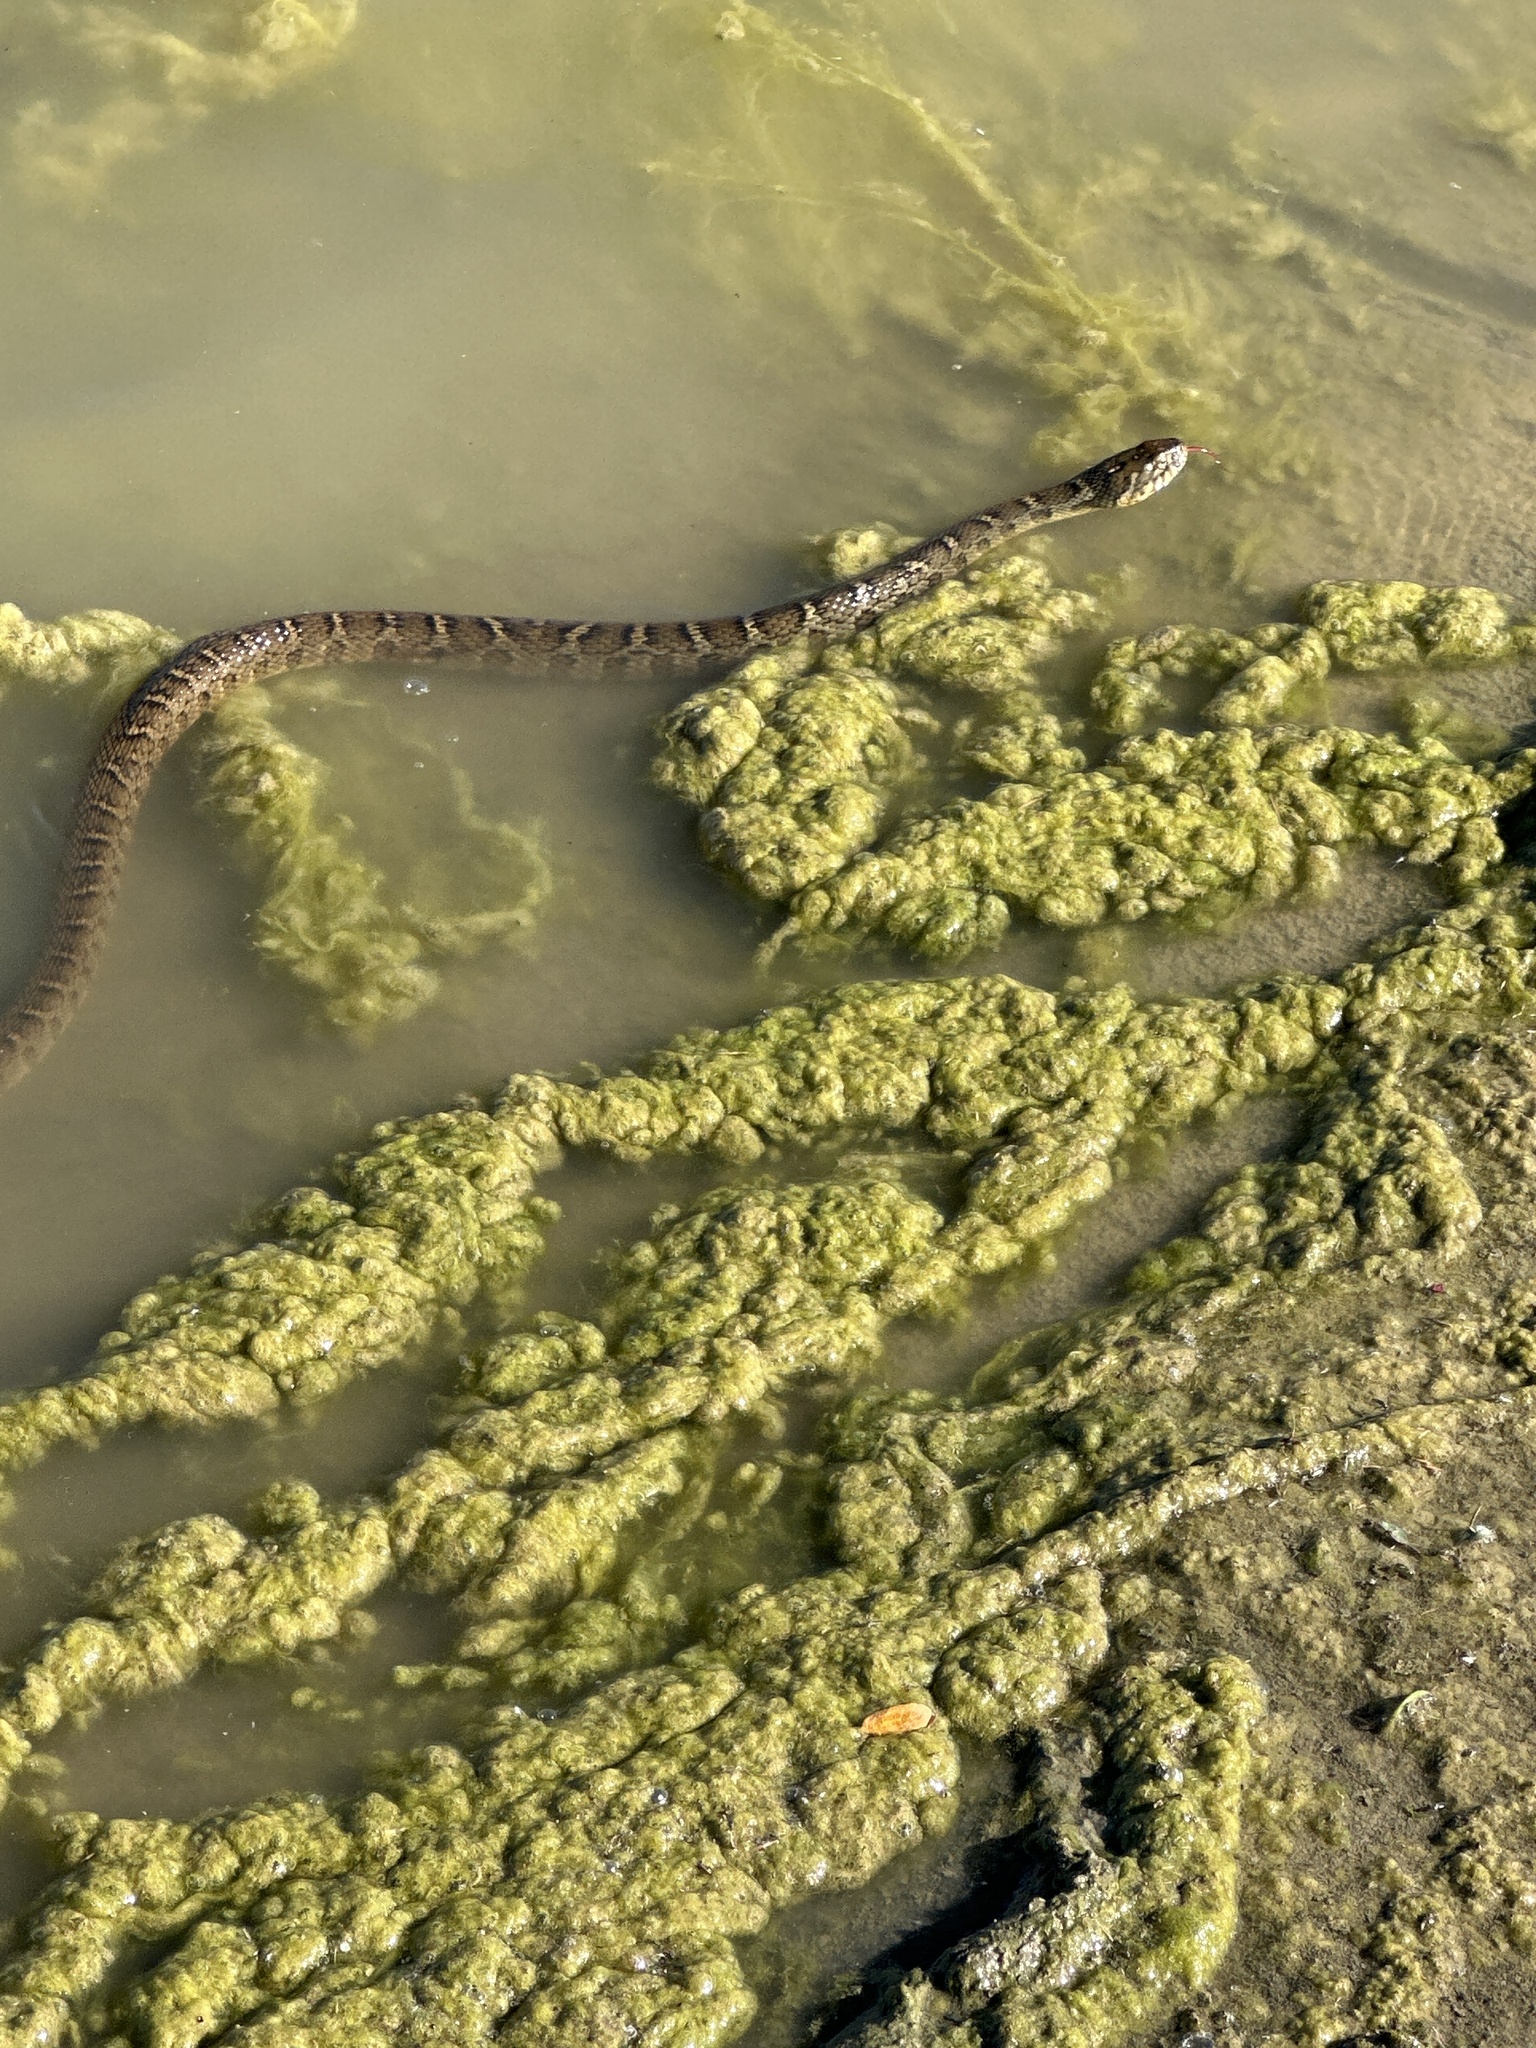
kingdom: Animalia
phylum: Chordata
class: Squamata
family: Colubridae
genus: Nerodia
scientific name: Nerodia erythrogaster
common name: Plainbelly water snake
